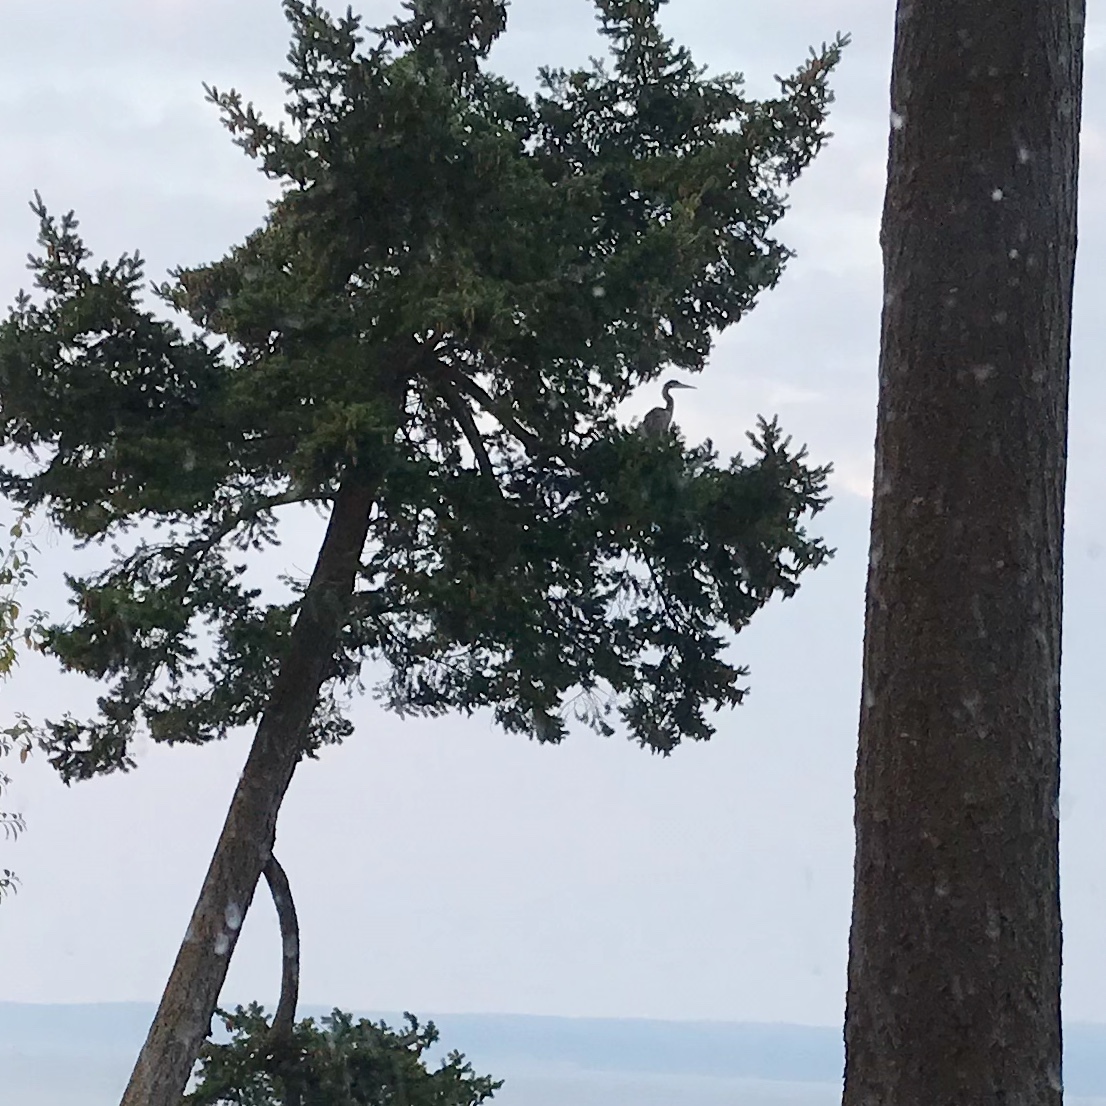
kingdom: Animalia
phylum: Chordata
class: Aves
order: Pelecaniformes
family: Ardeidae
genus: Ardea
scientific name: Ardea herodias
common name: Great blue heron
